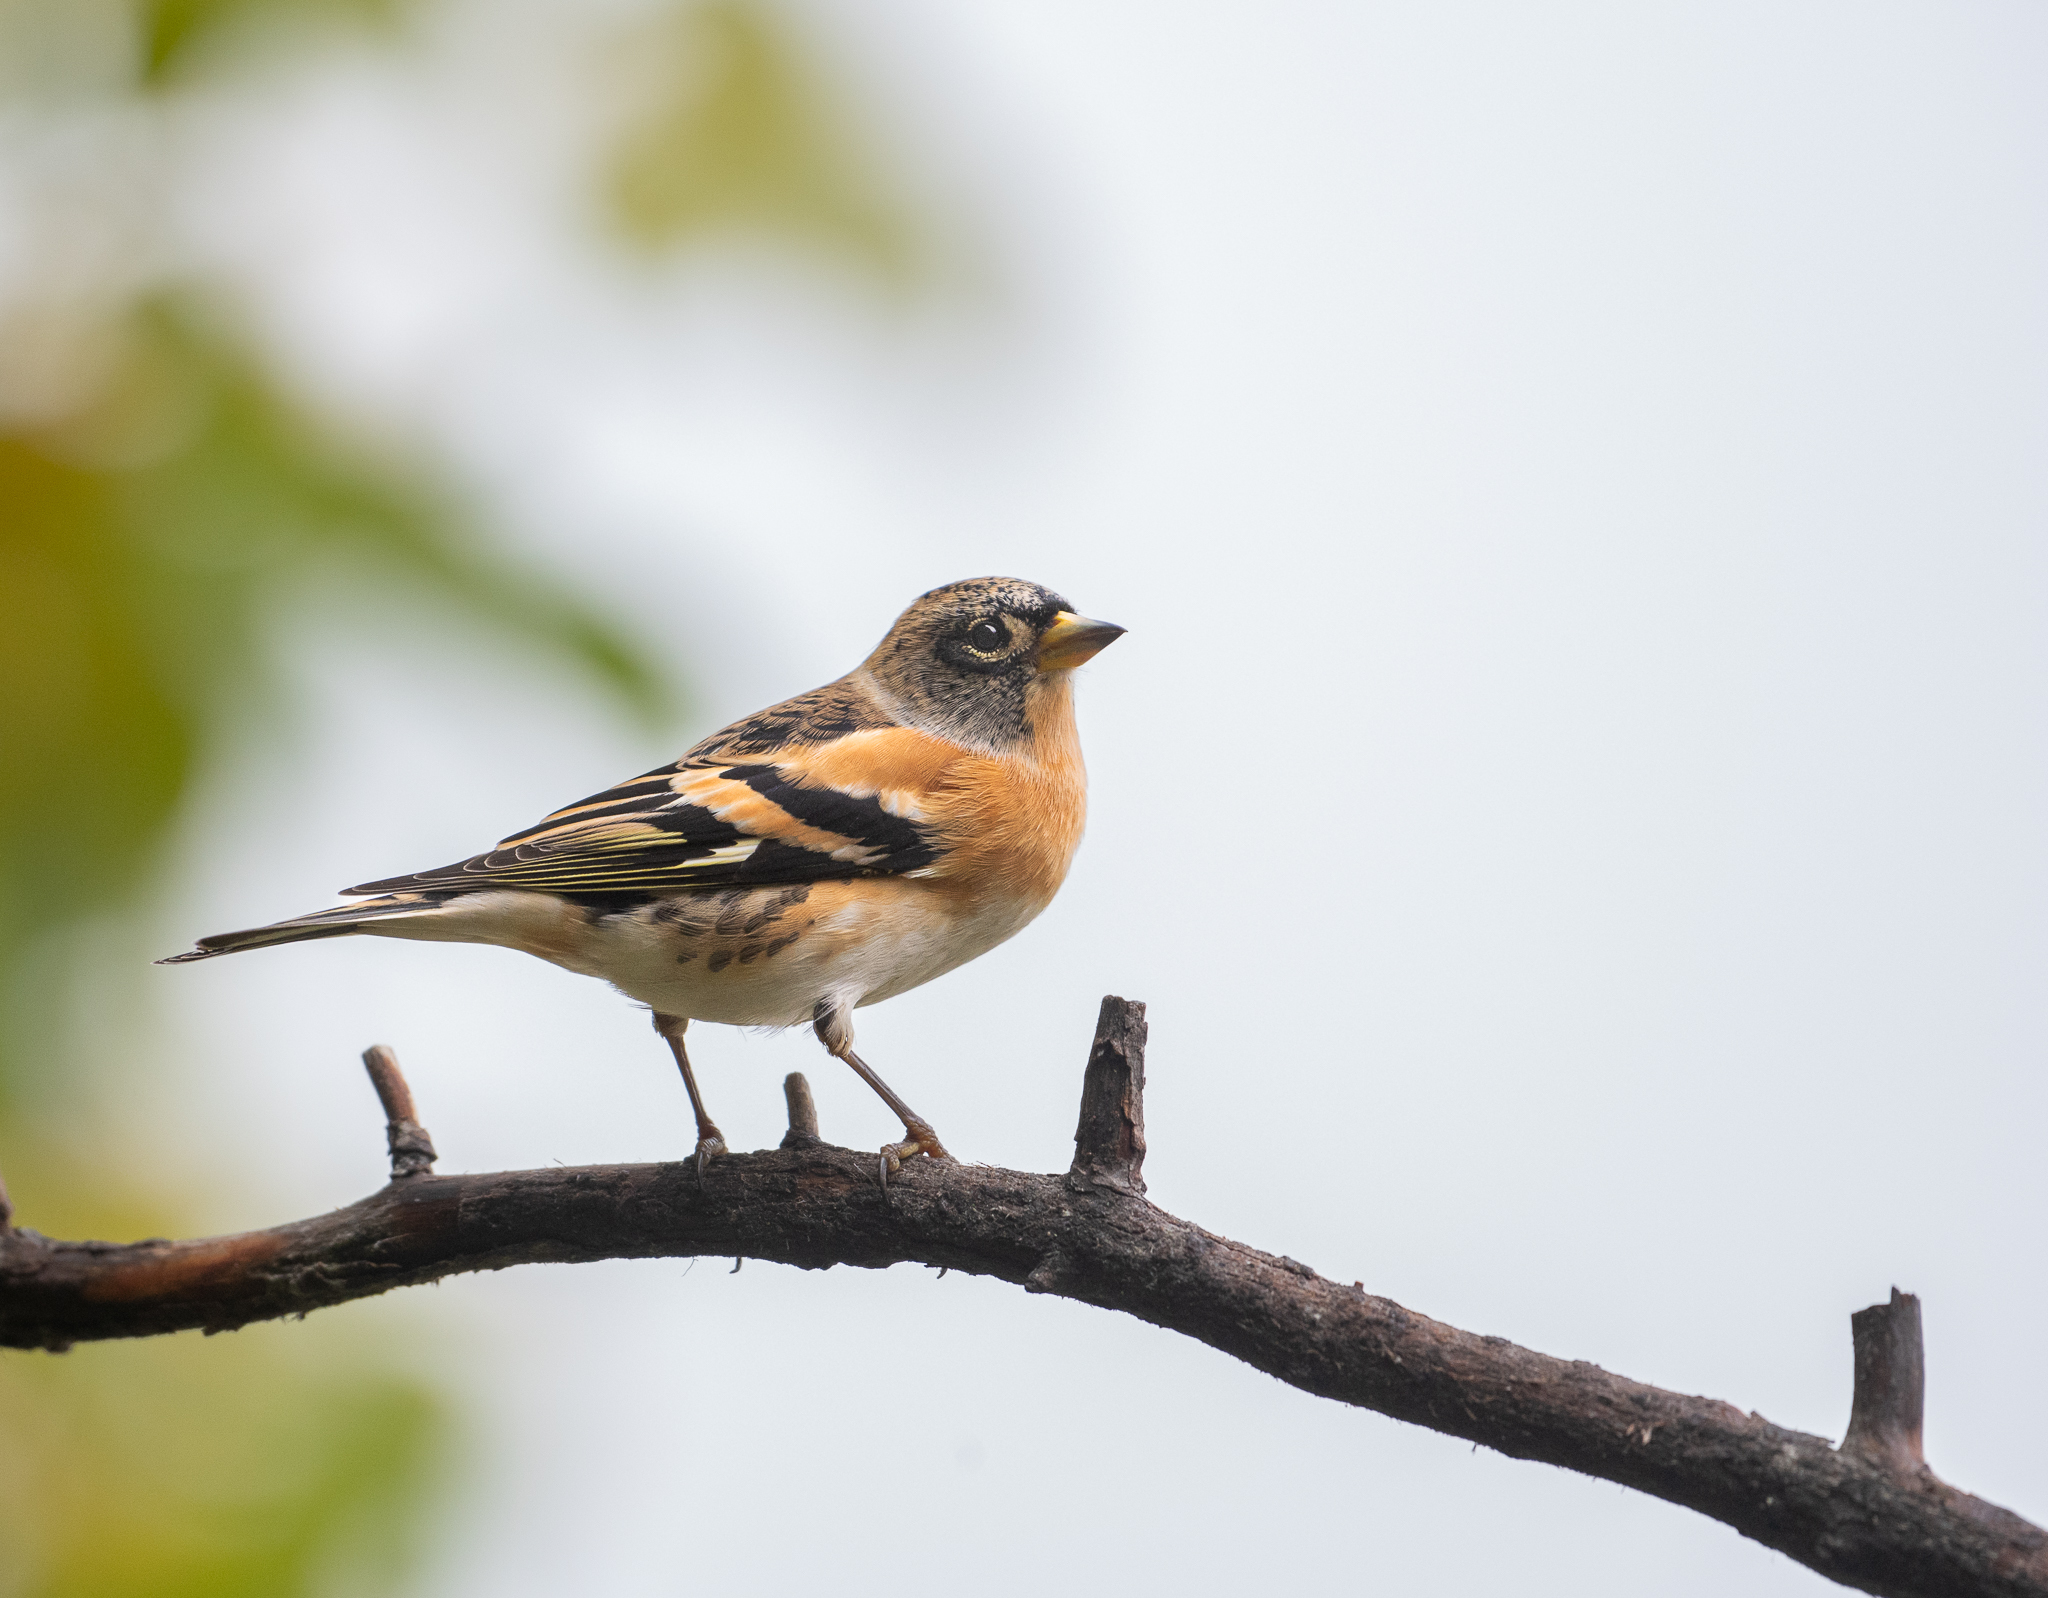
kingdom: Animalia
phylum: Chordata
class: Aves
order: Passeriformes
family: Fringillidae
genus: Fringilla
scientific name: Fringilla montifringilla
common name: Brambling
